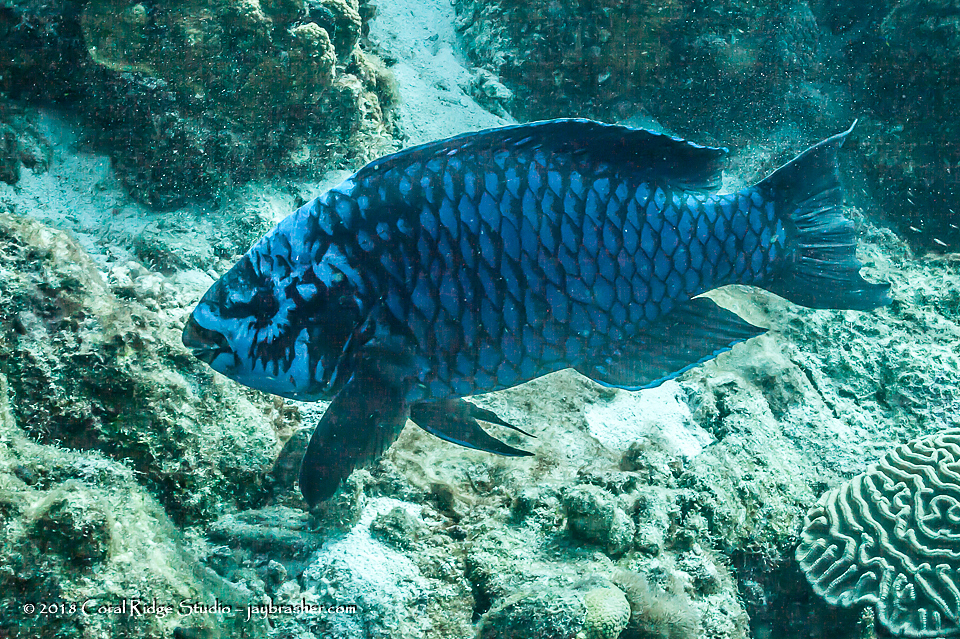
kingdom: Animalia
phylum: Chordata
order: Perciformes
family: Scaridae
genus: Scarus
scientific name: Scarus coelestinus
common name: Midnight parrotfish
